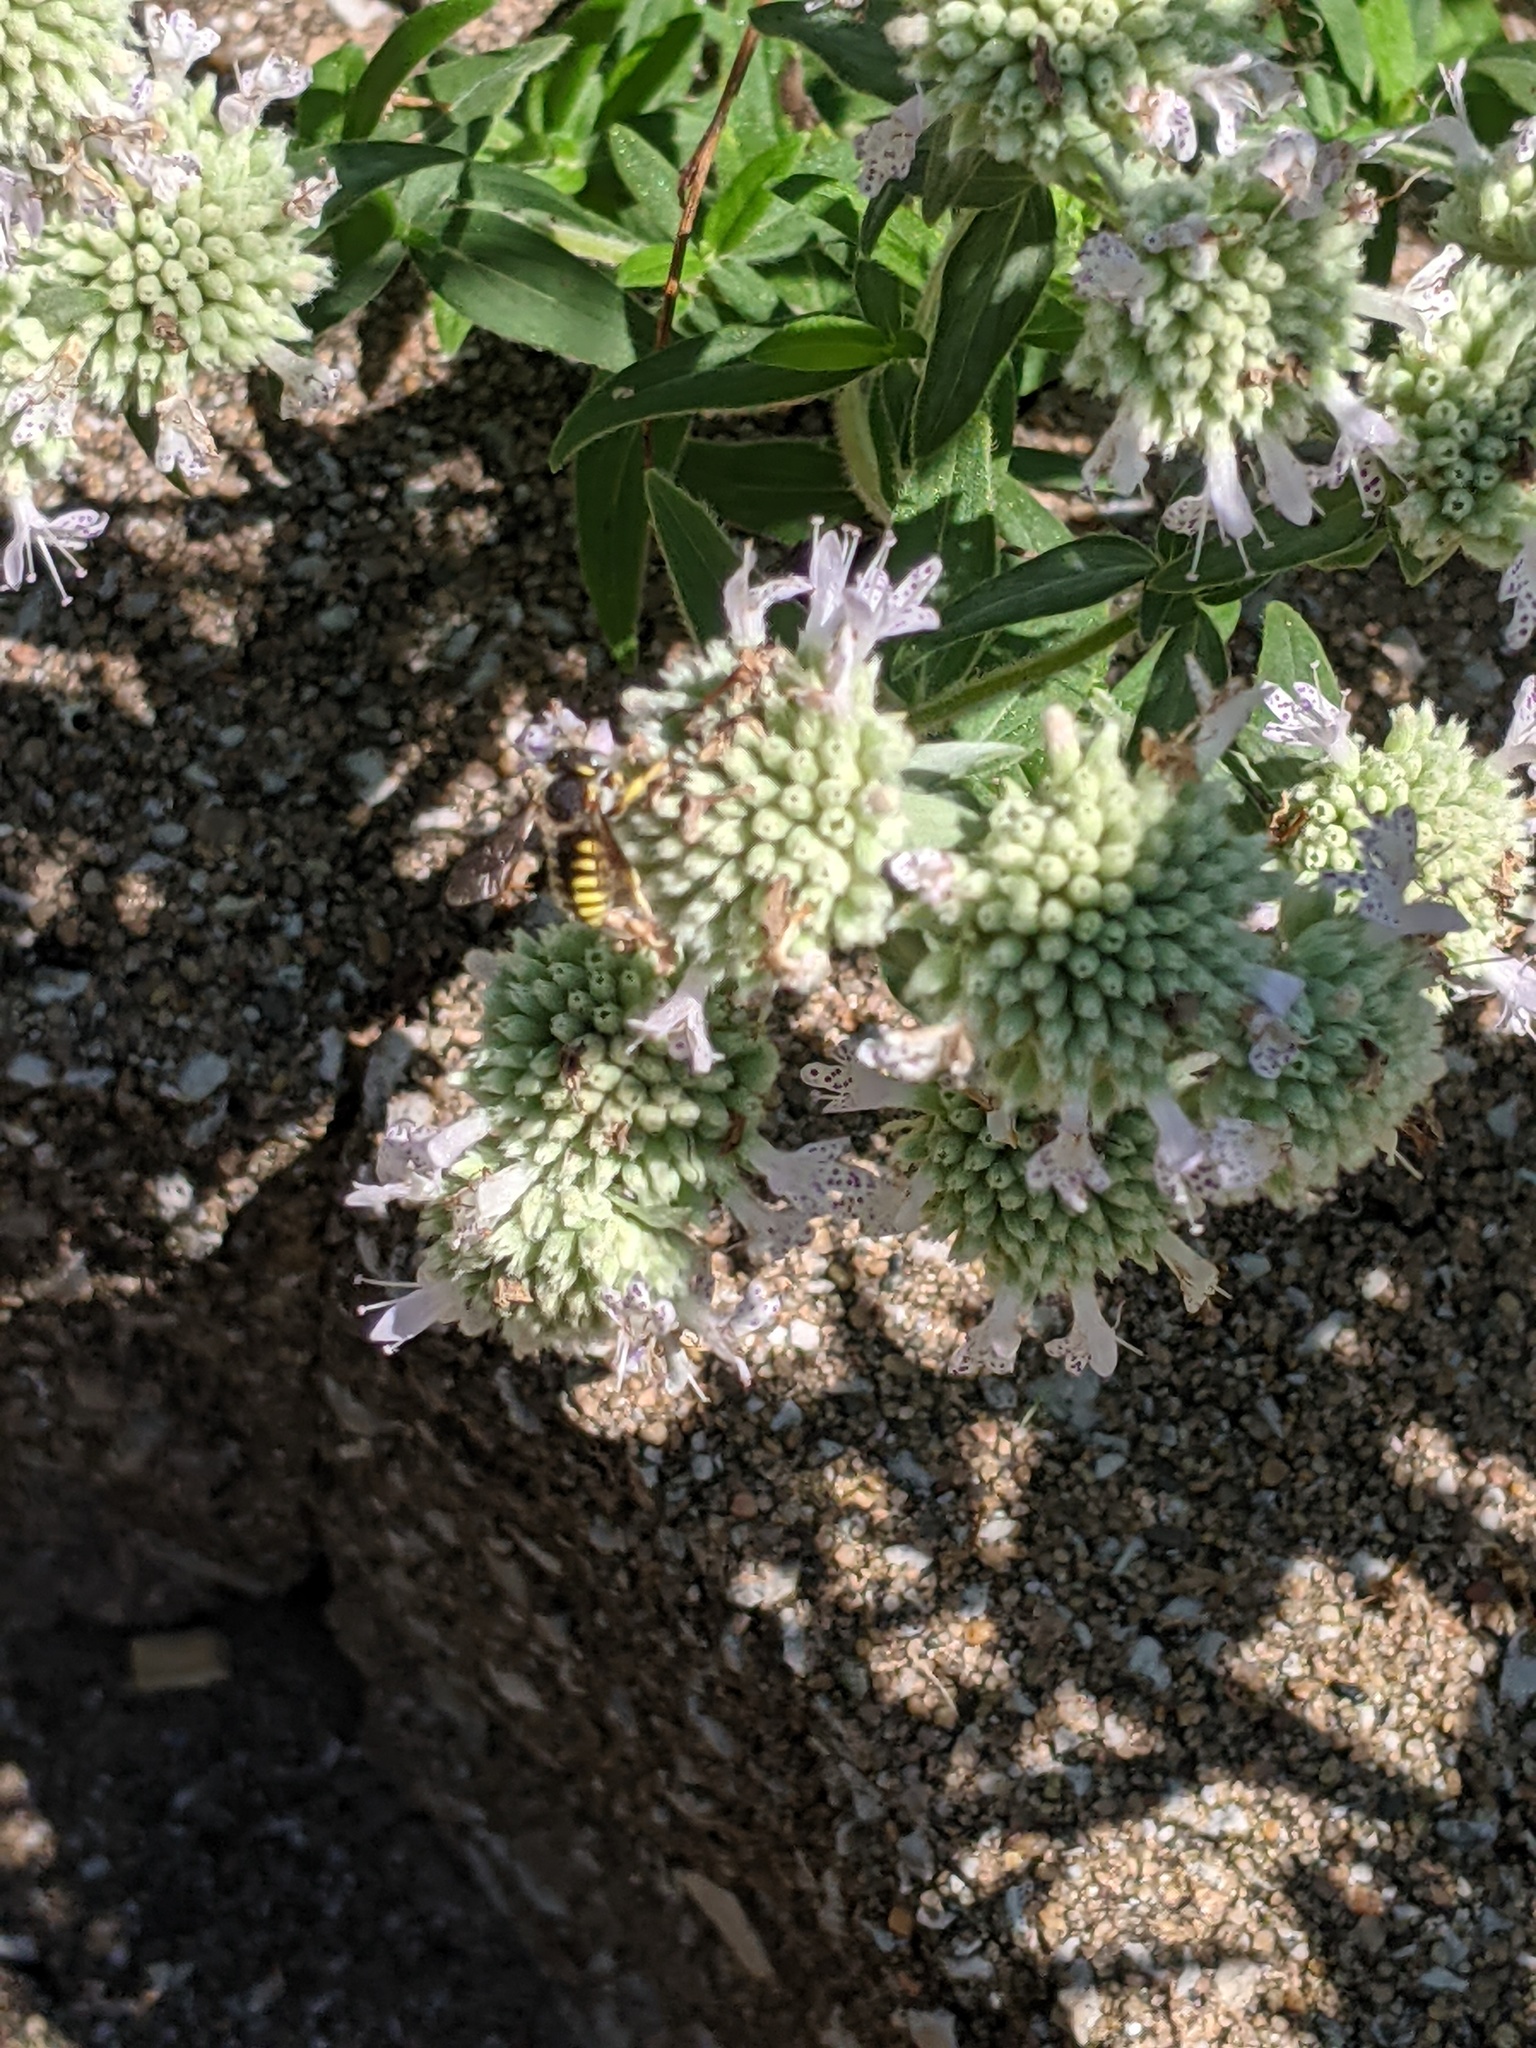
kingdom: Animalia
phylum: Arthropoda
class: Insecta
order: Hymenoptera
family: Megachilidae
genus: Anthidium
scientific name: Anthidium oblongatum
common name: Oblong wool carder bee
